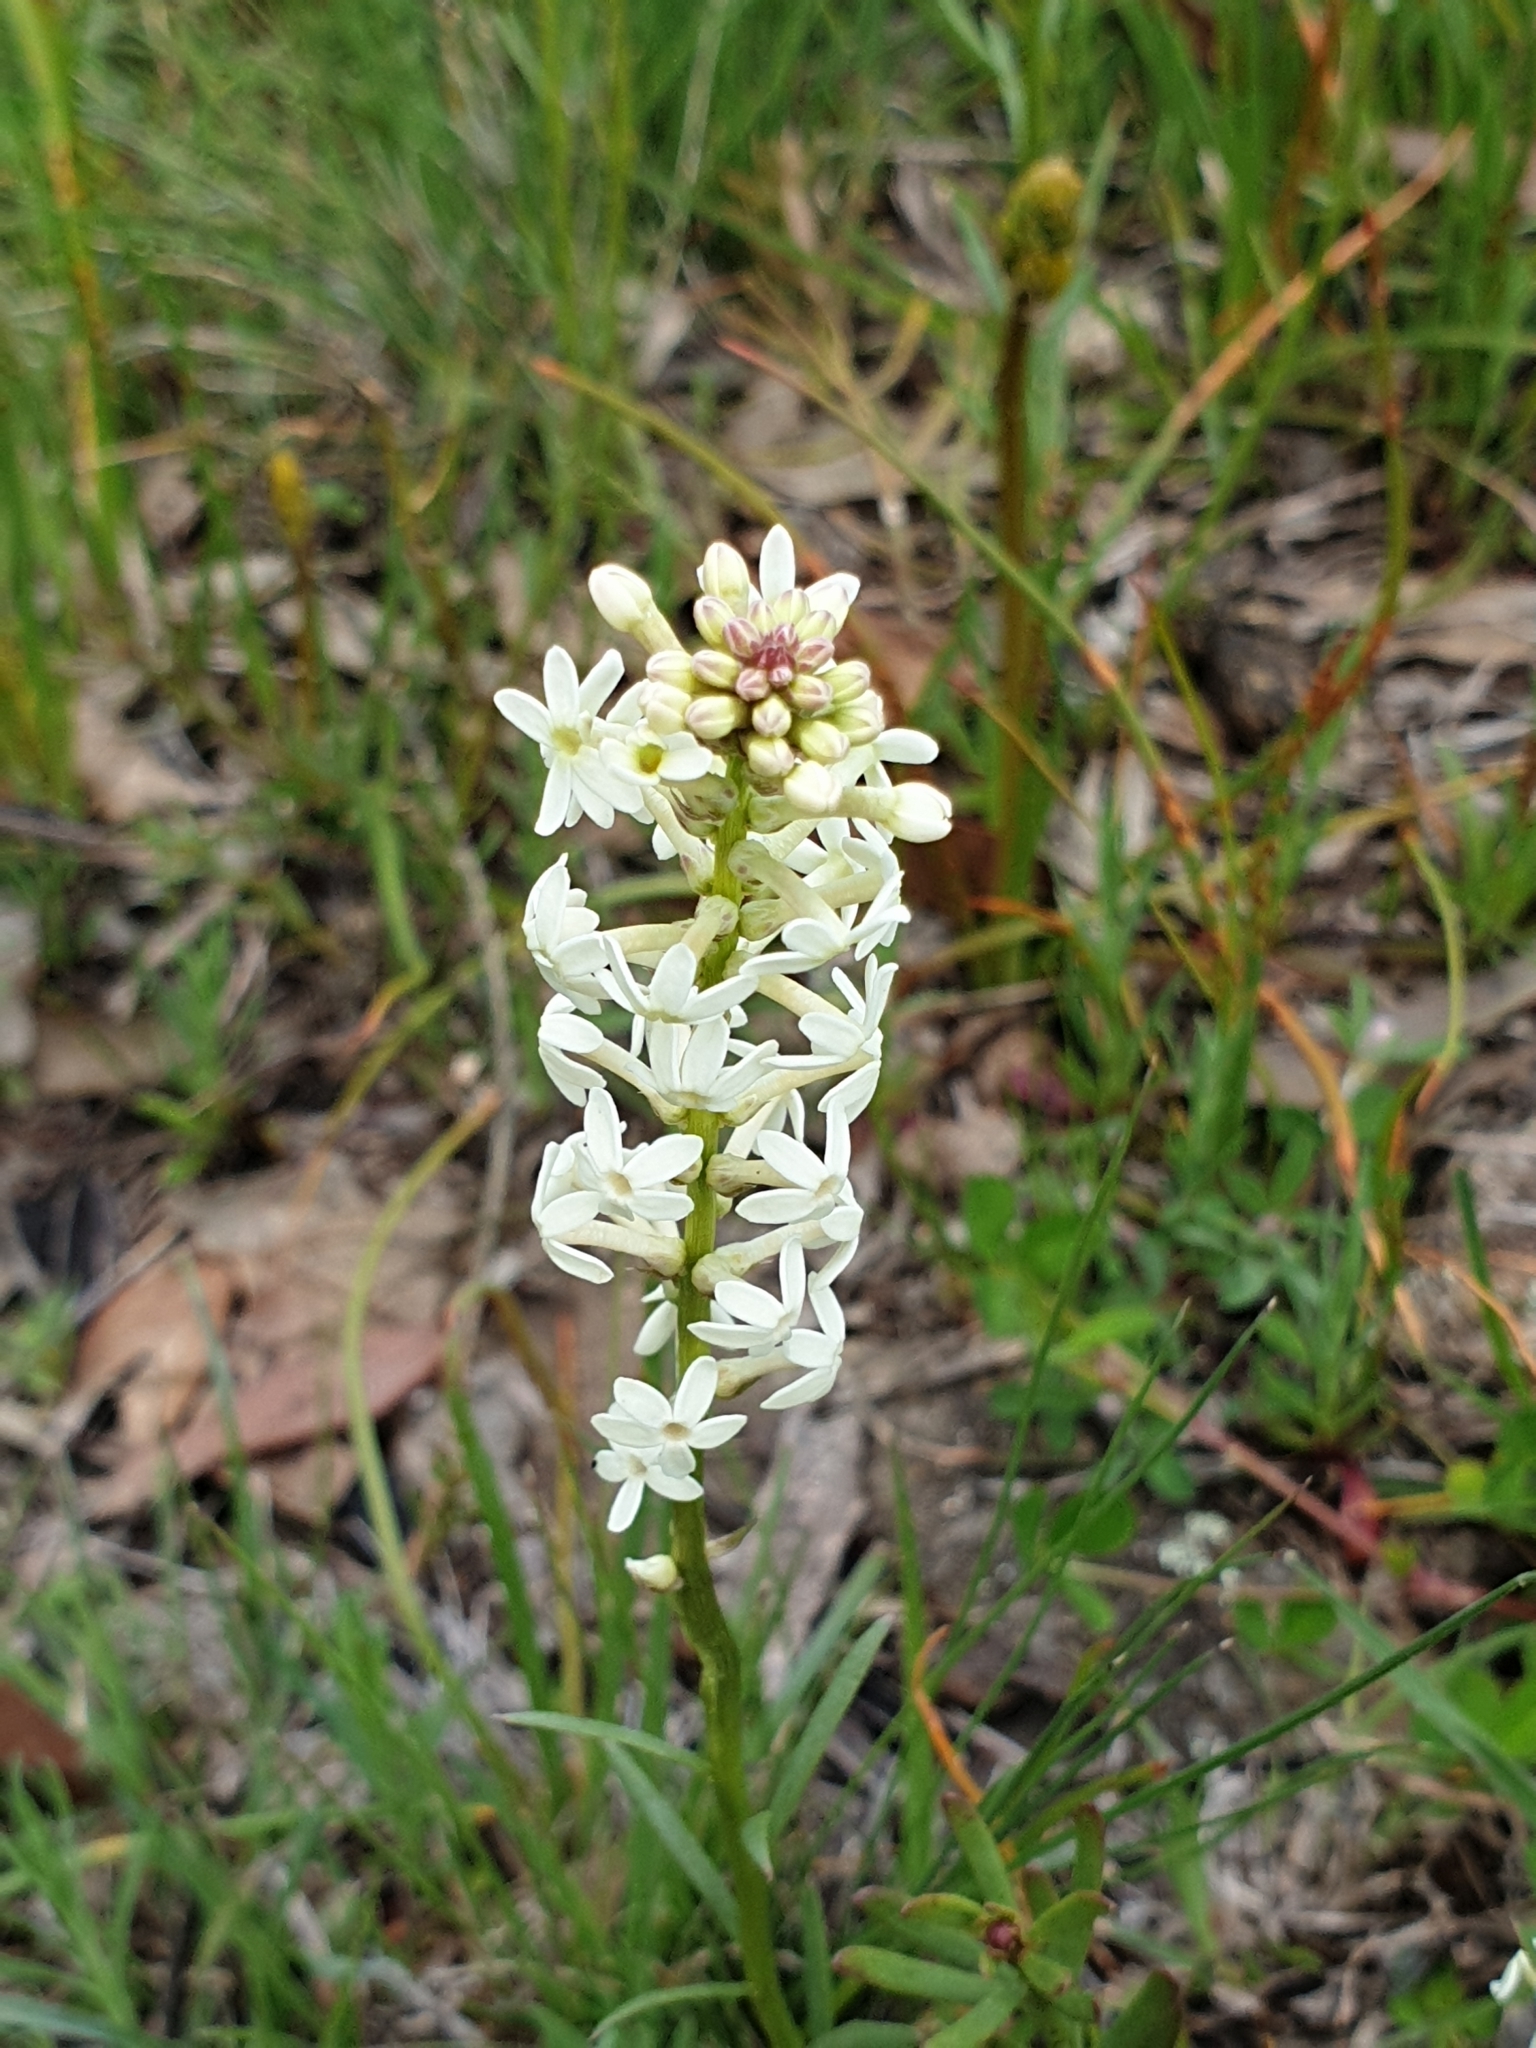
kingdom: Plantae
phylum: Tracheophyta
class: Magnoliopsida
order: Celastrales
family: Celastraceae
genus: Stackhousia
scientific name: Stackhousia monogyna
